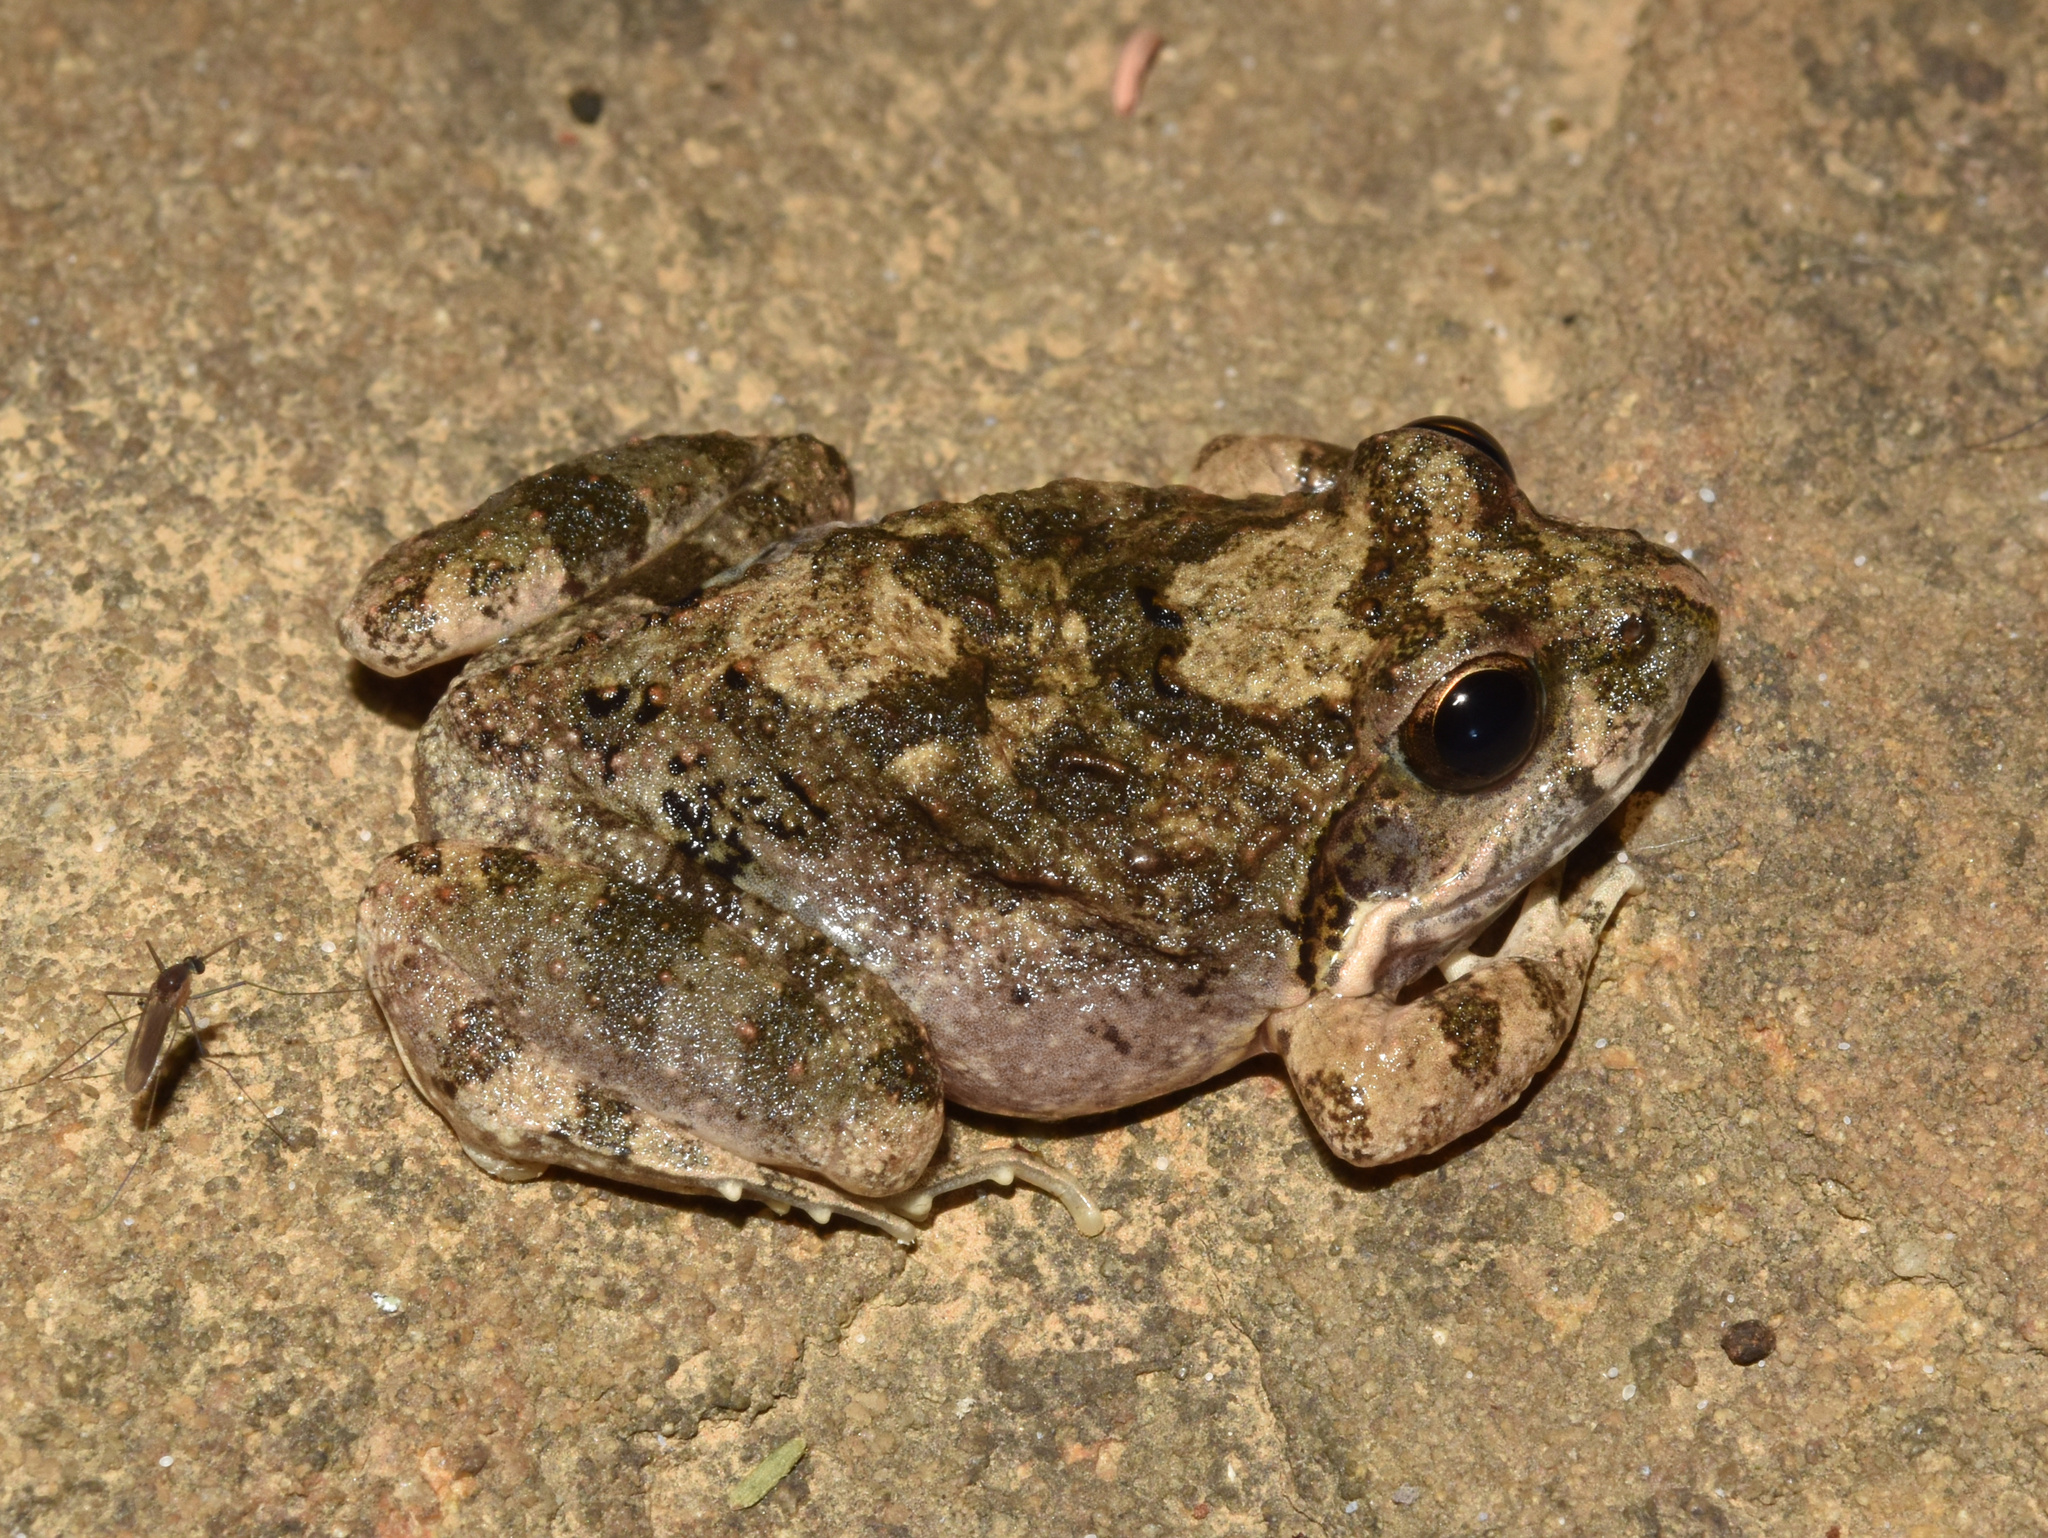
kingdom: Animalia
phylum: Chordata
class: Amphibia
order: Anura
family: Pyxicephalidae
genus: Tomopterna
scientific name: Tomopterna natalensis
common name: Natal sand frog
